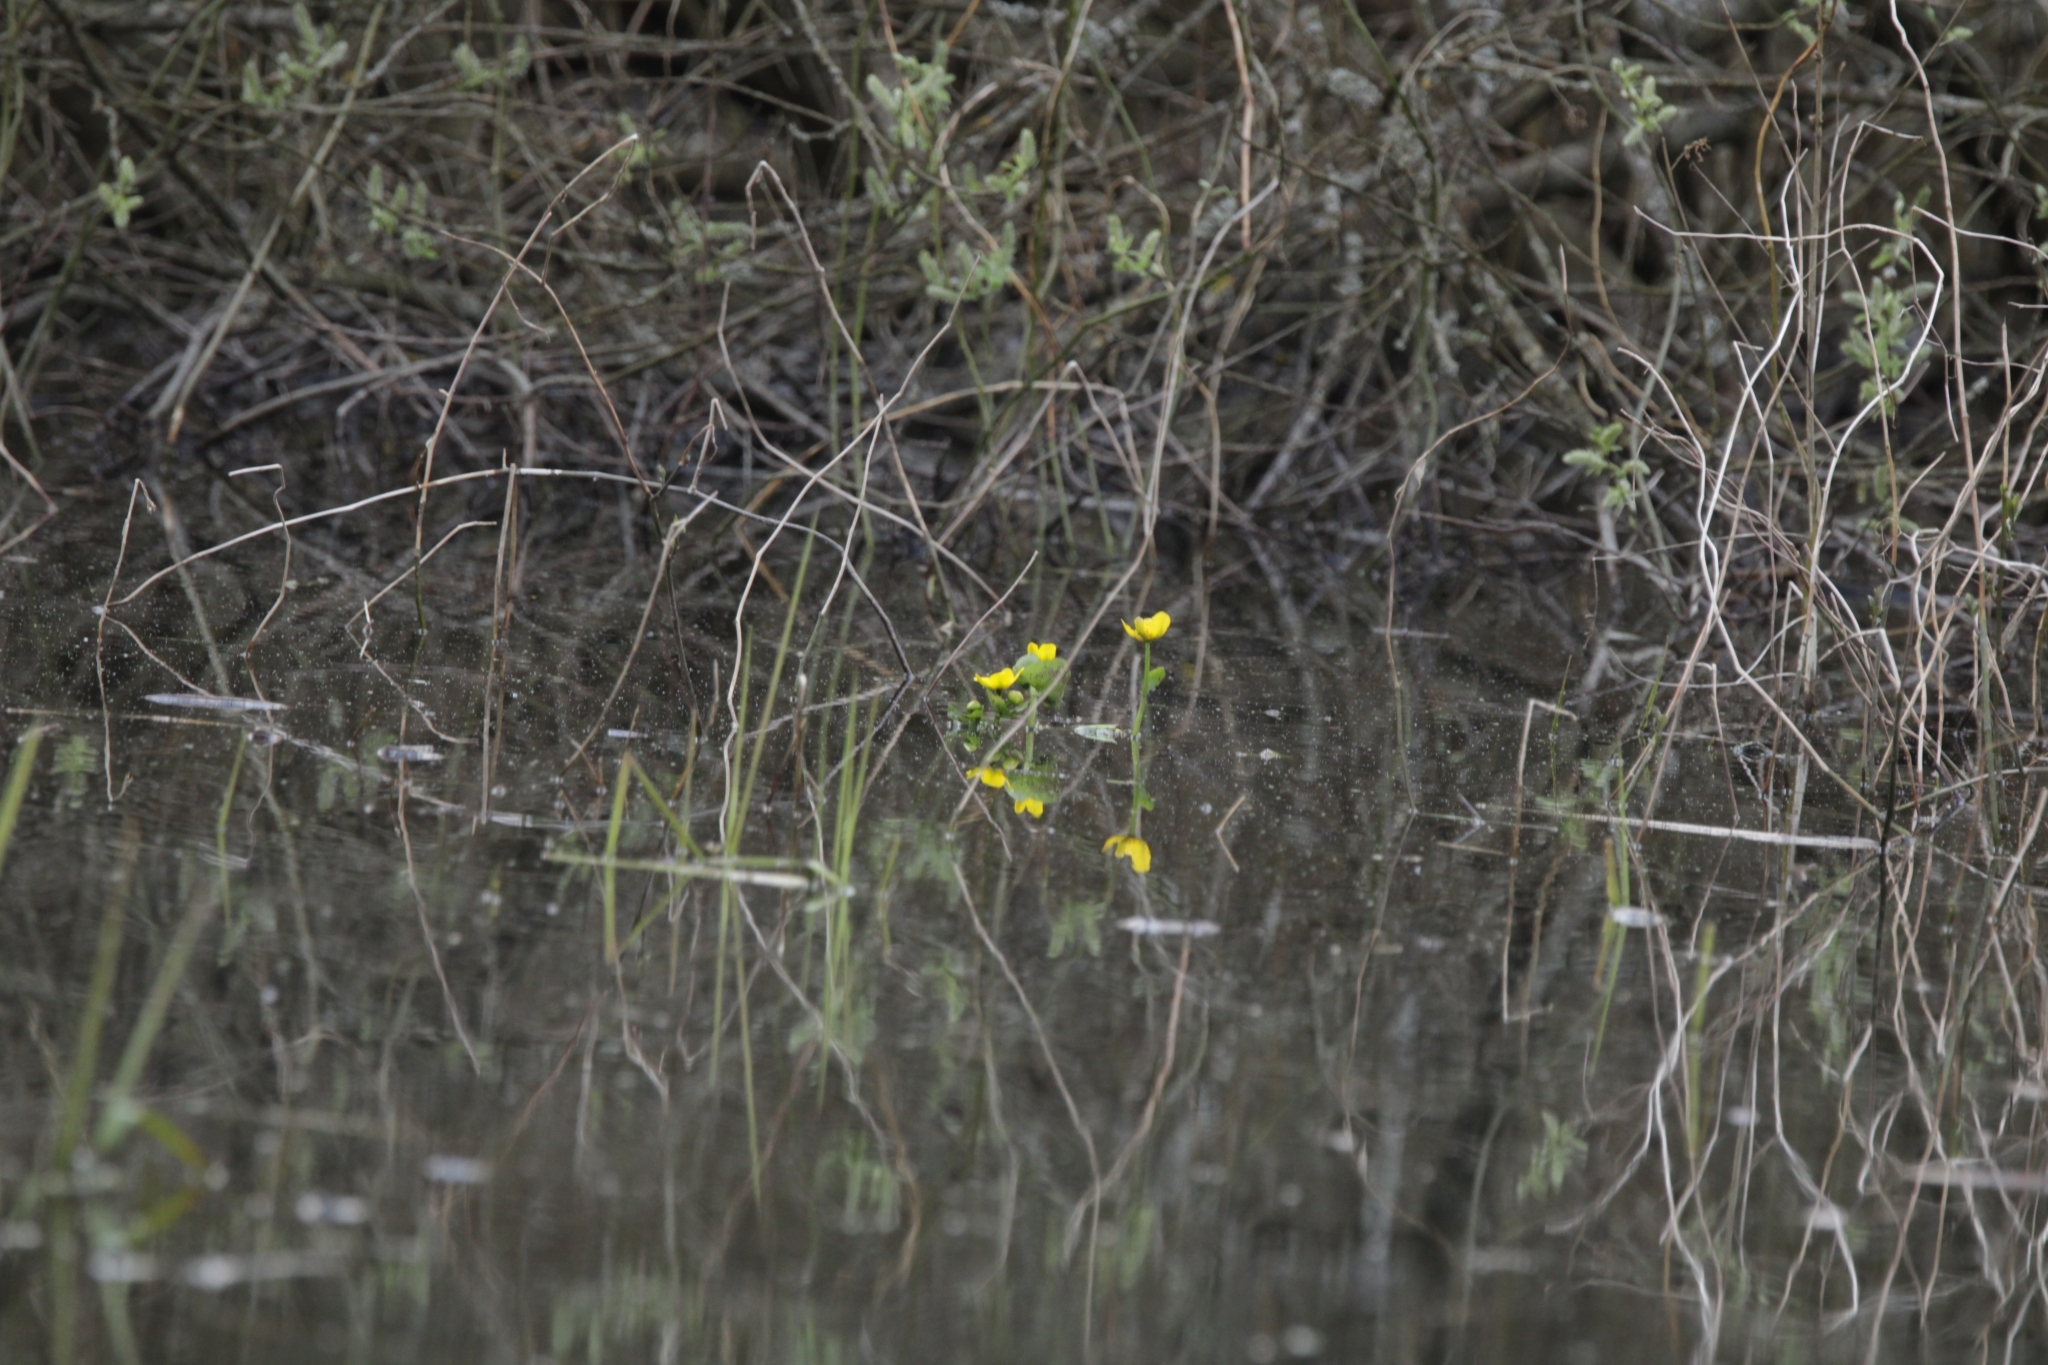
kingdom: Plantae
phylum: Tracheophyta
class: Magnoliopsida
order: Ranunculales
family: Ranunculaceae
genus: Caltha
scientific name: Caltha palustris
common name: Marsh marigold
